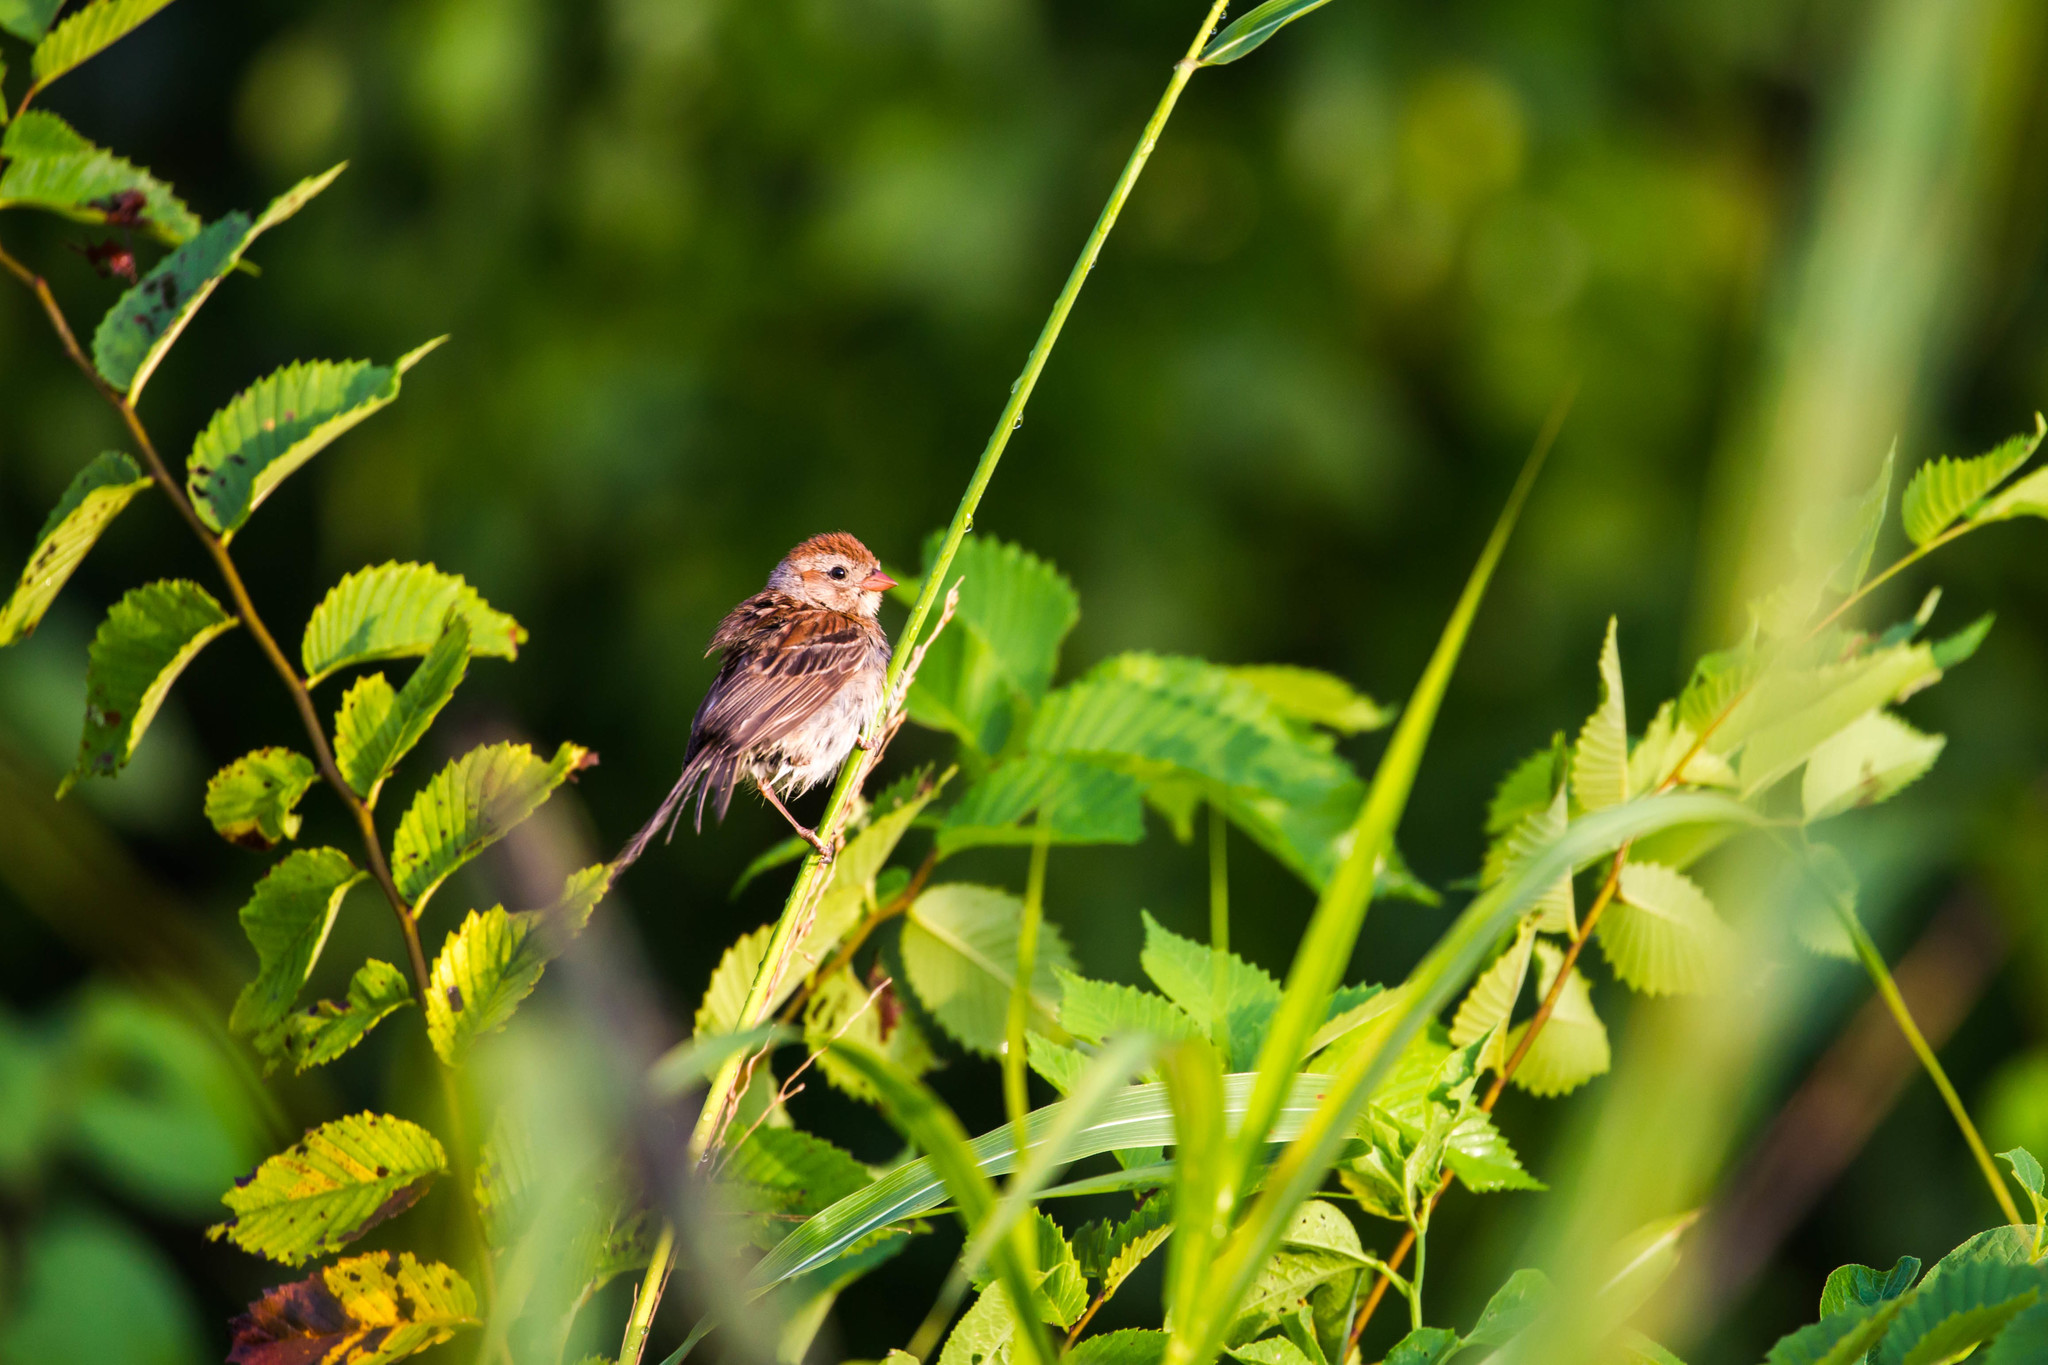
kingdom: Animalia
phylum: Chordata
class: Aves
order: Passeriformes
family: Passerellidae
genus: Spizella
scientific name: Spizella pusilla
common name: Field sparrow
